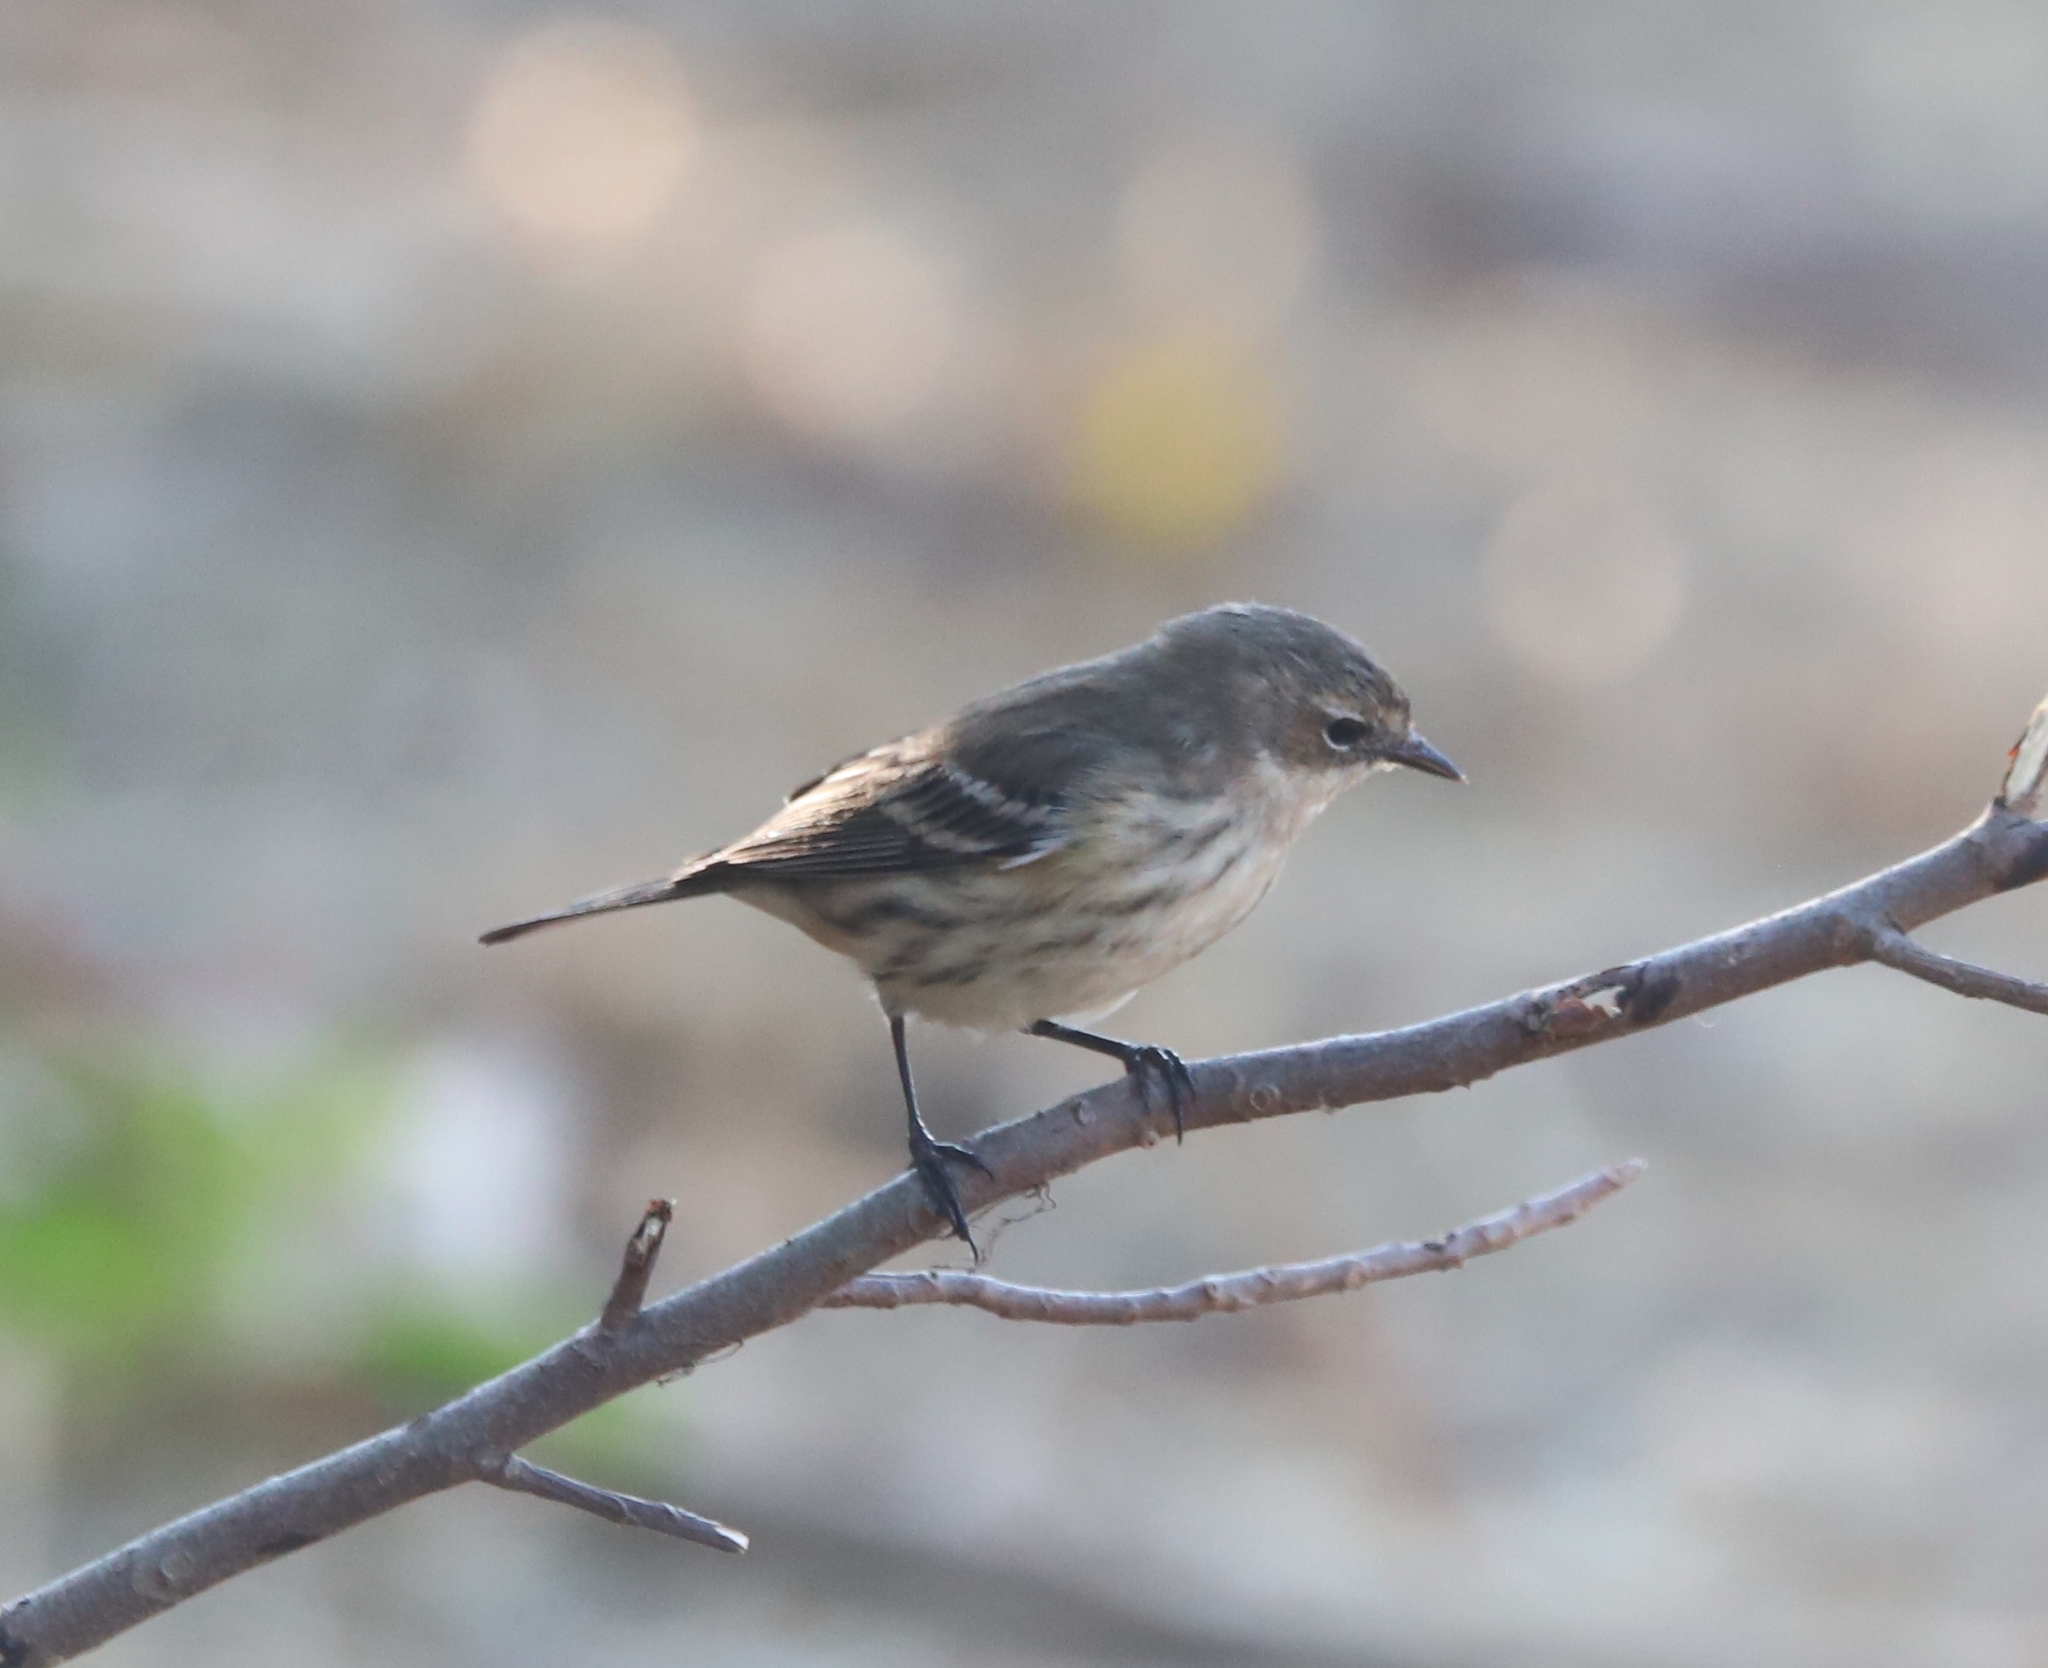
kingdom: Animalia
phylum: Chordata
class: Aves
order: Passeriformes
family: Parulidae
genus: Setophaga
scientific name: Setophaga coronata
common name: Myrtle warbler
